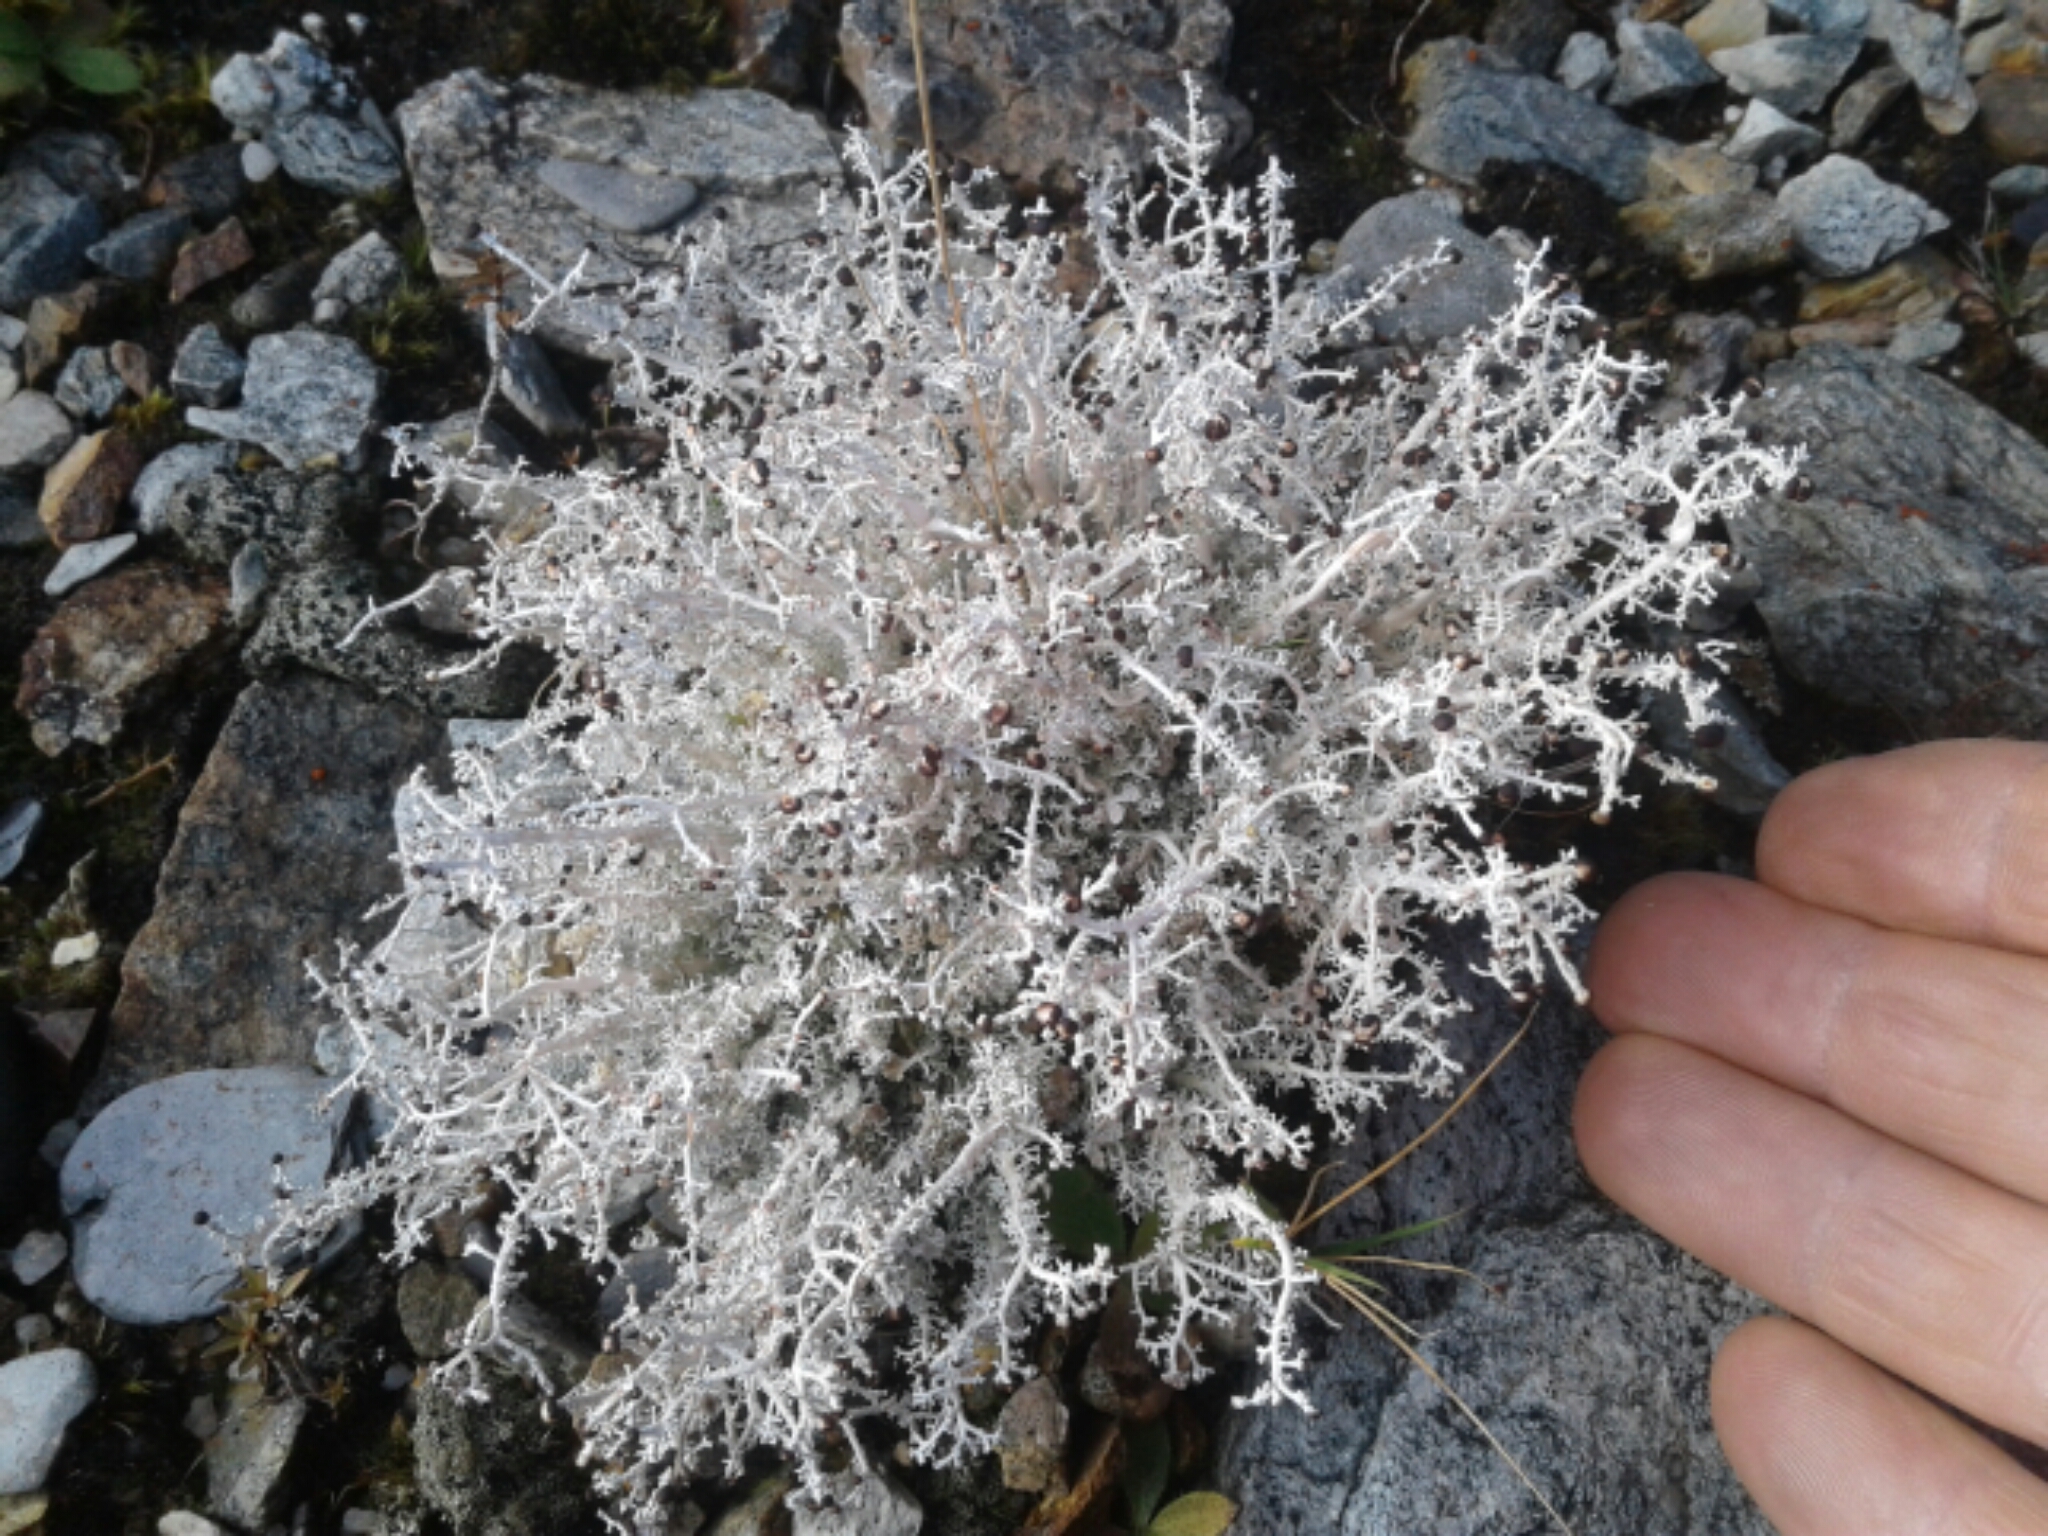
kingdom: Fungi
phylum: Ascomycota
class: Lecanoromycetes
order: Lecanorales
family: Stereocaulaceae
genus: Stereocaulon
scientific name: Stereocaulon ramulosum
